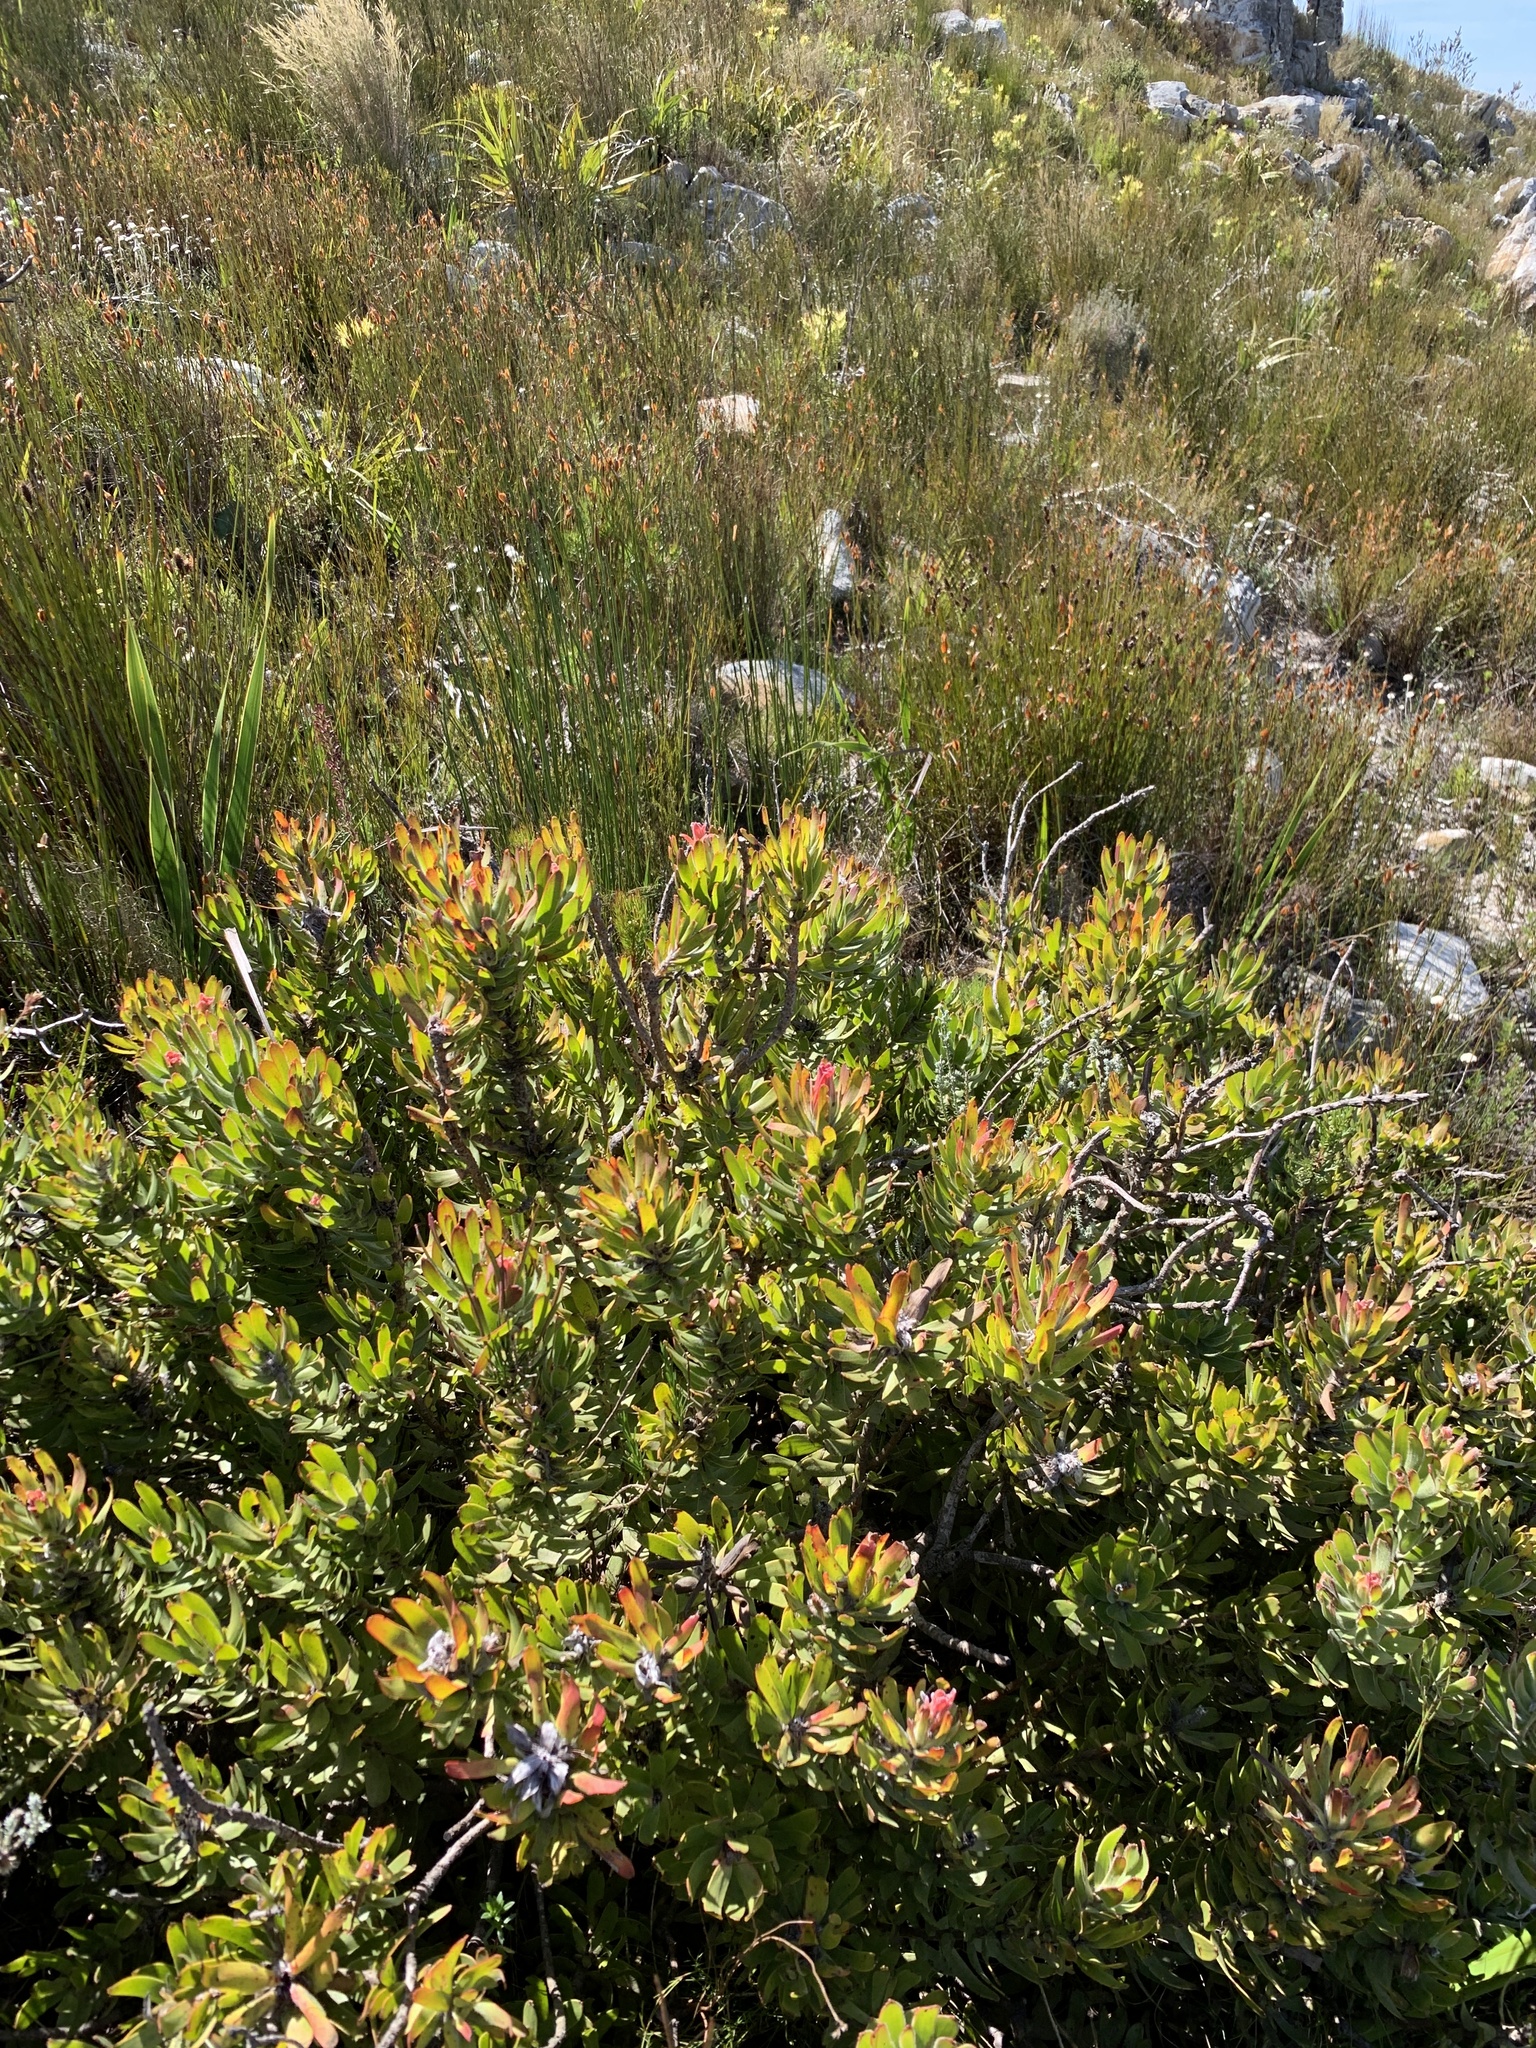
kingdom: Plantae
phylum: Tracheophyta
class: Magnoliopsida
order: Proteales
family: Proteaceae
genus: Mimetes
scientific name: Mimetes cucullatus
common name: Common pagoda
